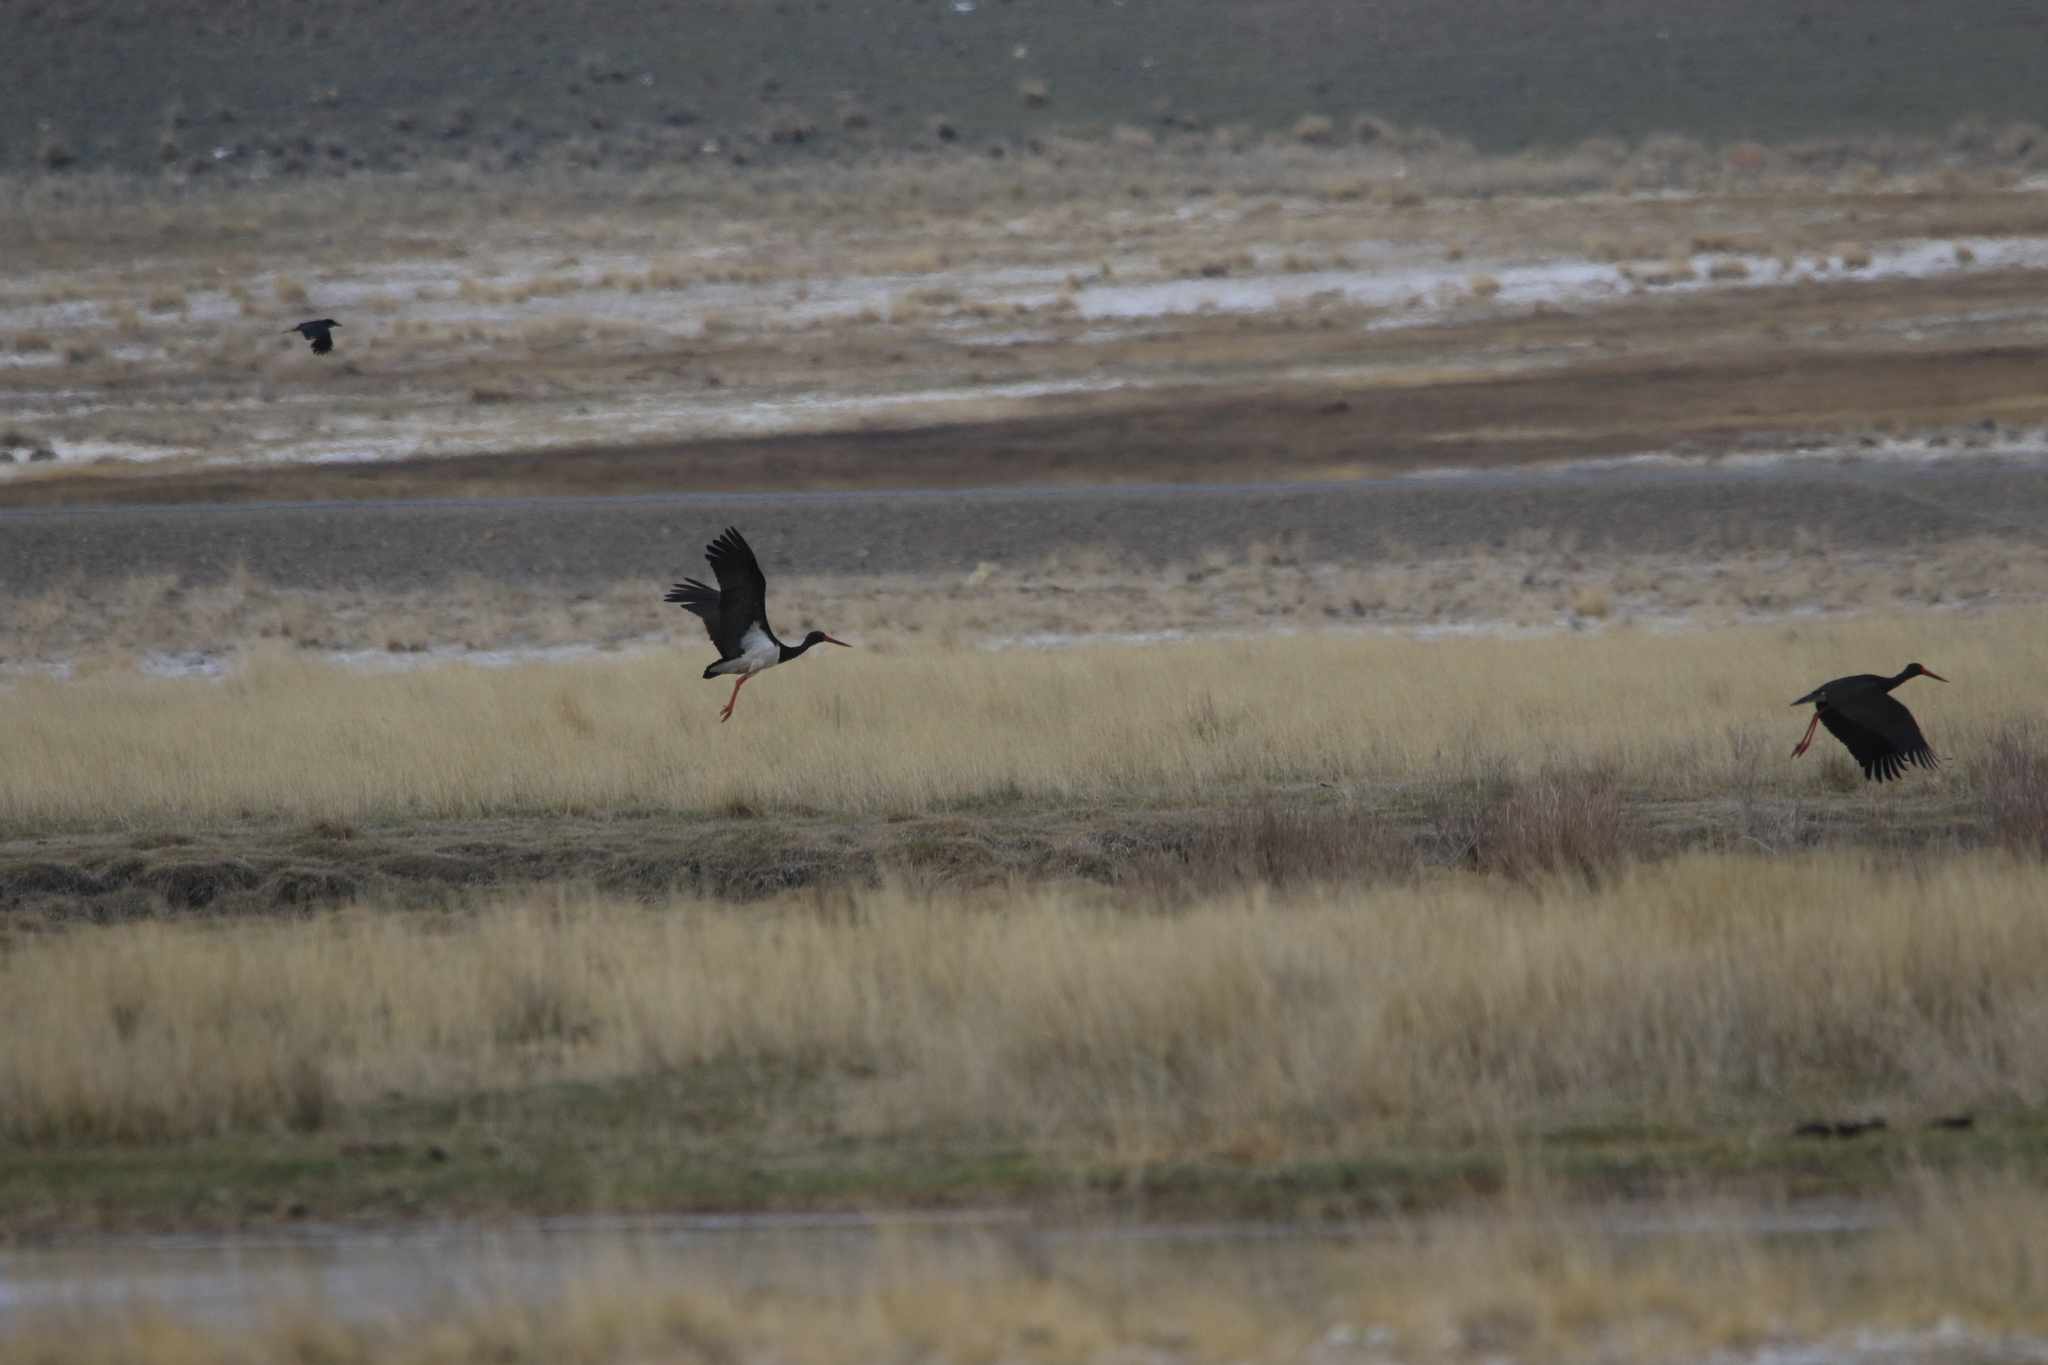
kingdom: Animalia
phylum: Chordata
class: Aves
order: Ciconiiformes
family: Ciconiidae
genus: Ciconia
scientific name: Ciconia nigra
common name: Black stork
